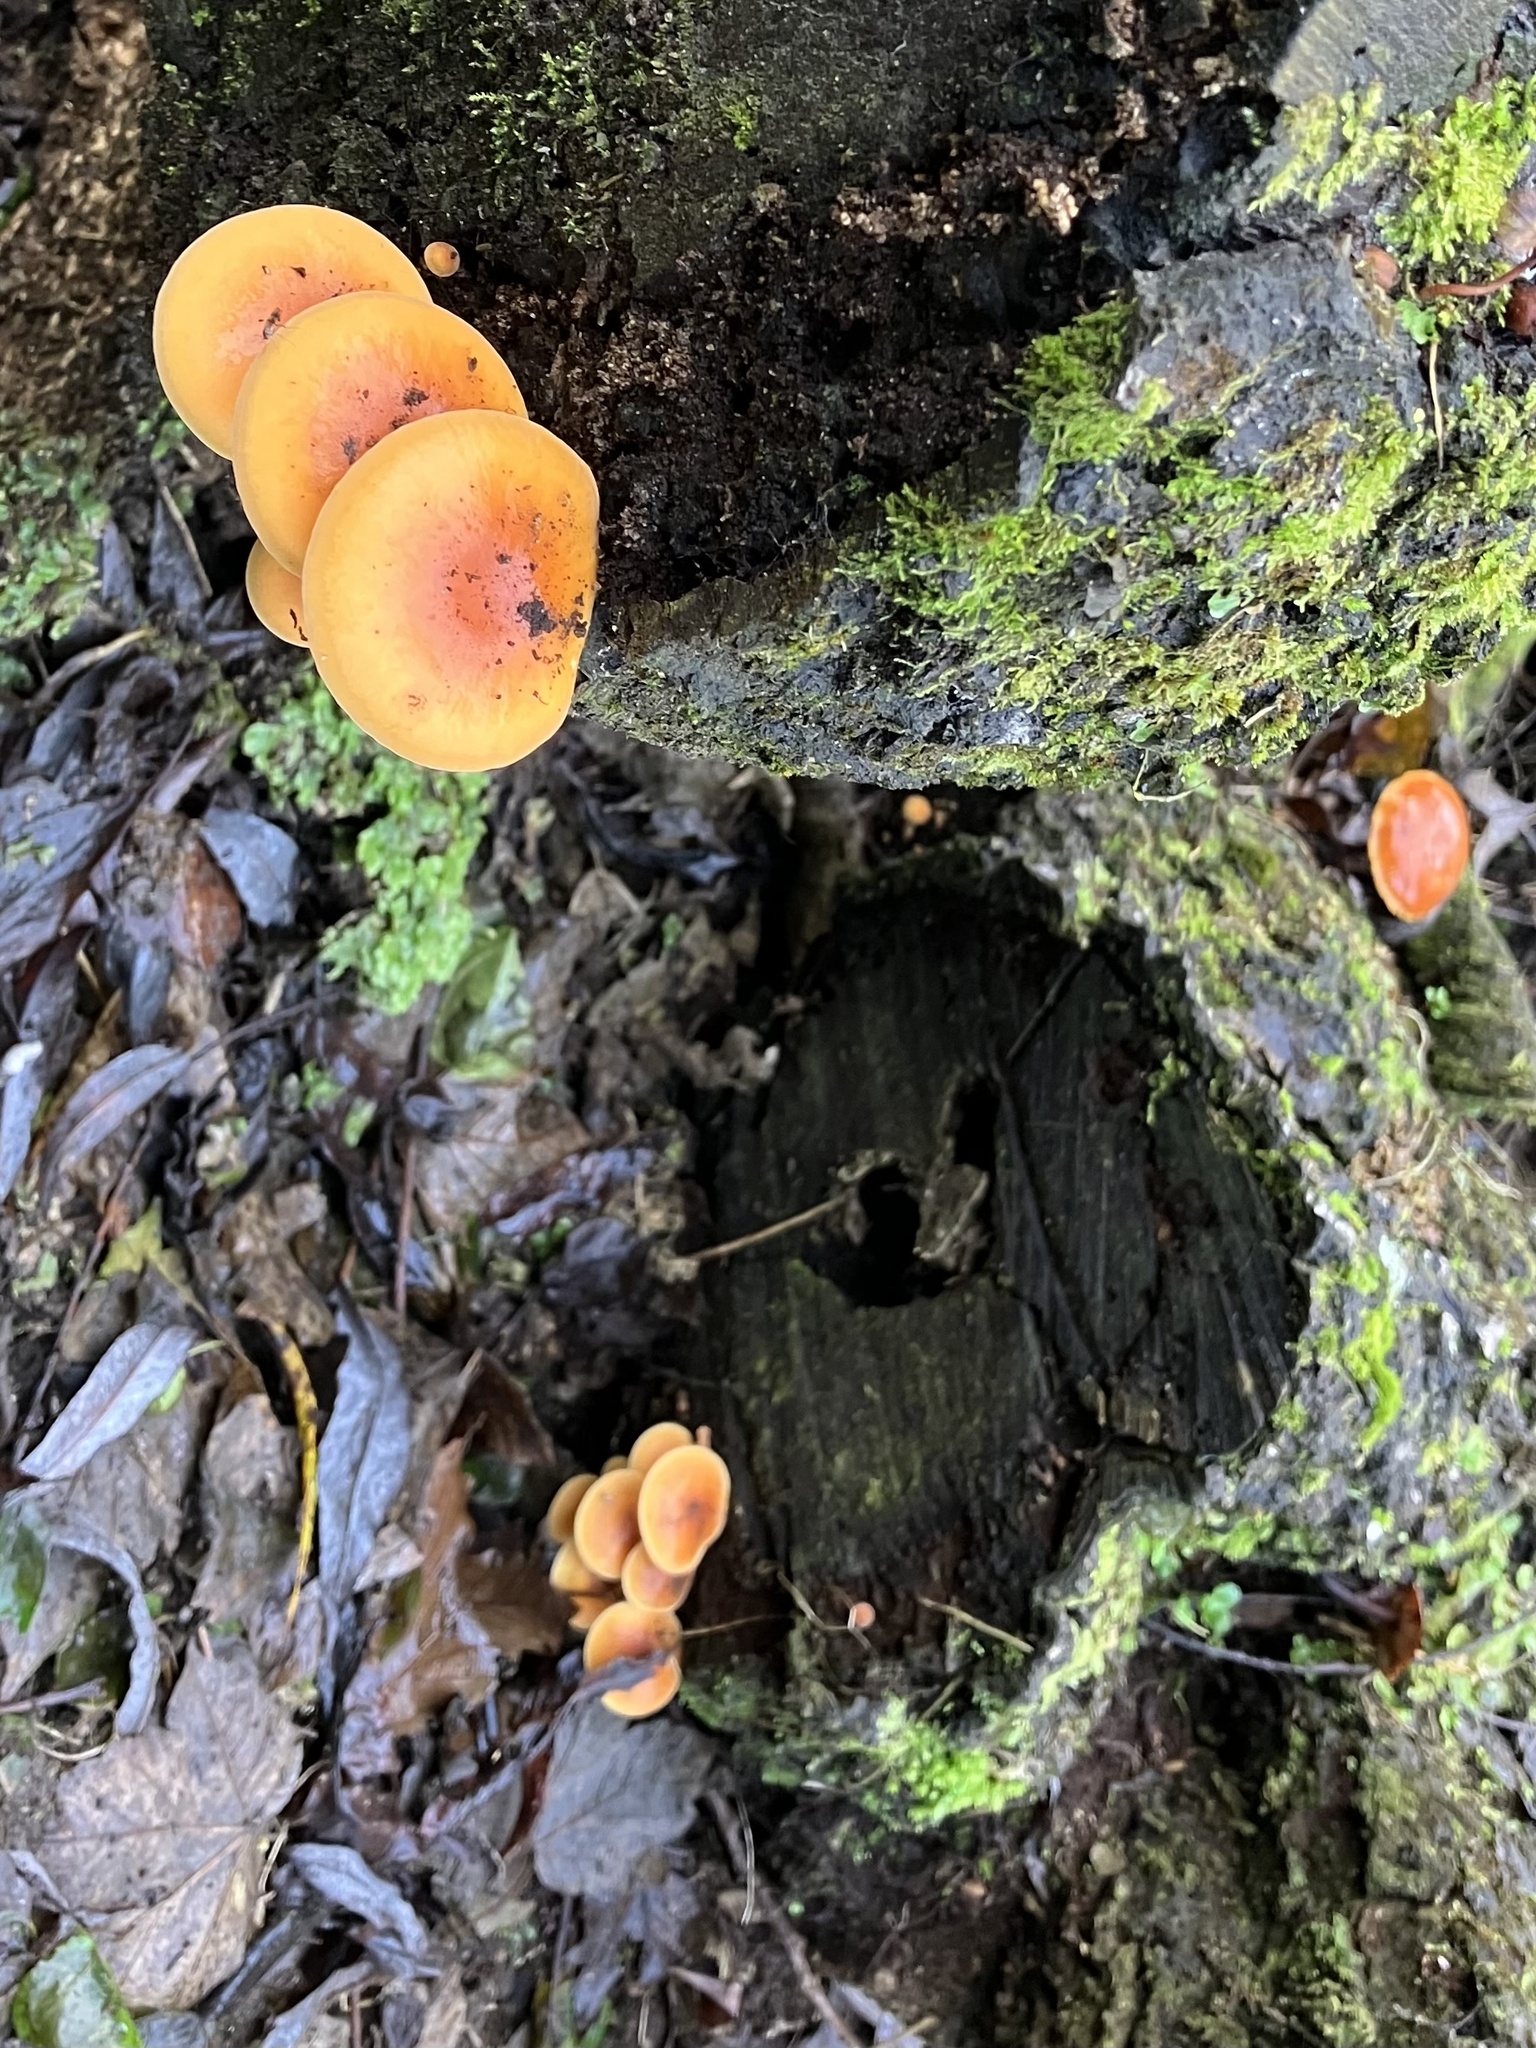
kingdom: Fungi
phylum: Basidiomycota
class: Agaricomycetes
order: Agaricales
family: Physalacriaceae
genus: Flammulina
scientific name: Flammulina velutipes
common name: Velvet shank
